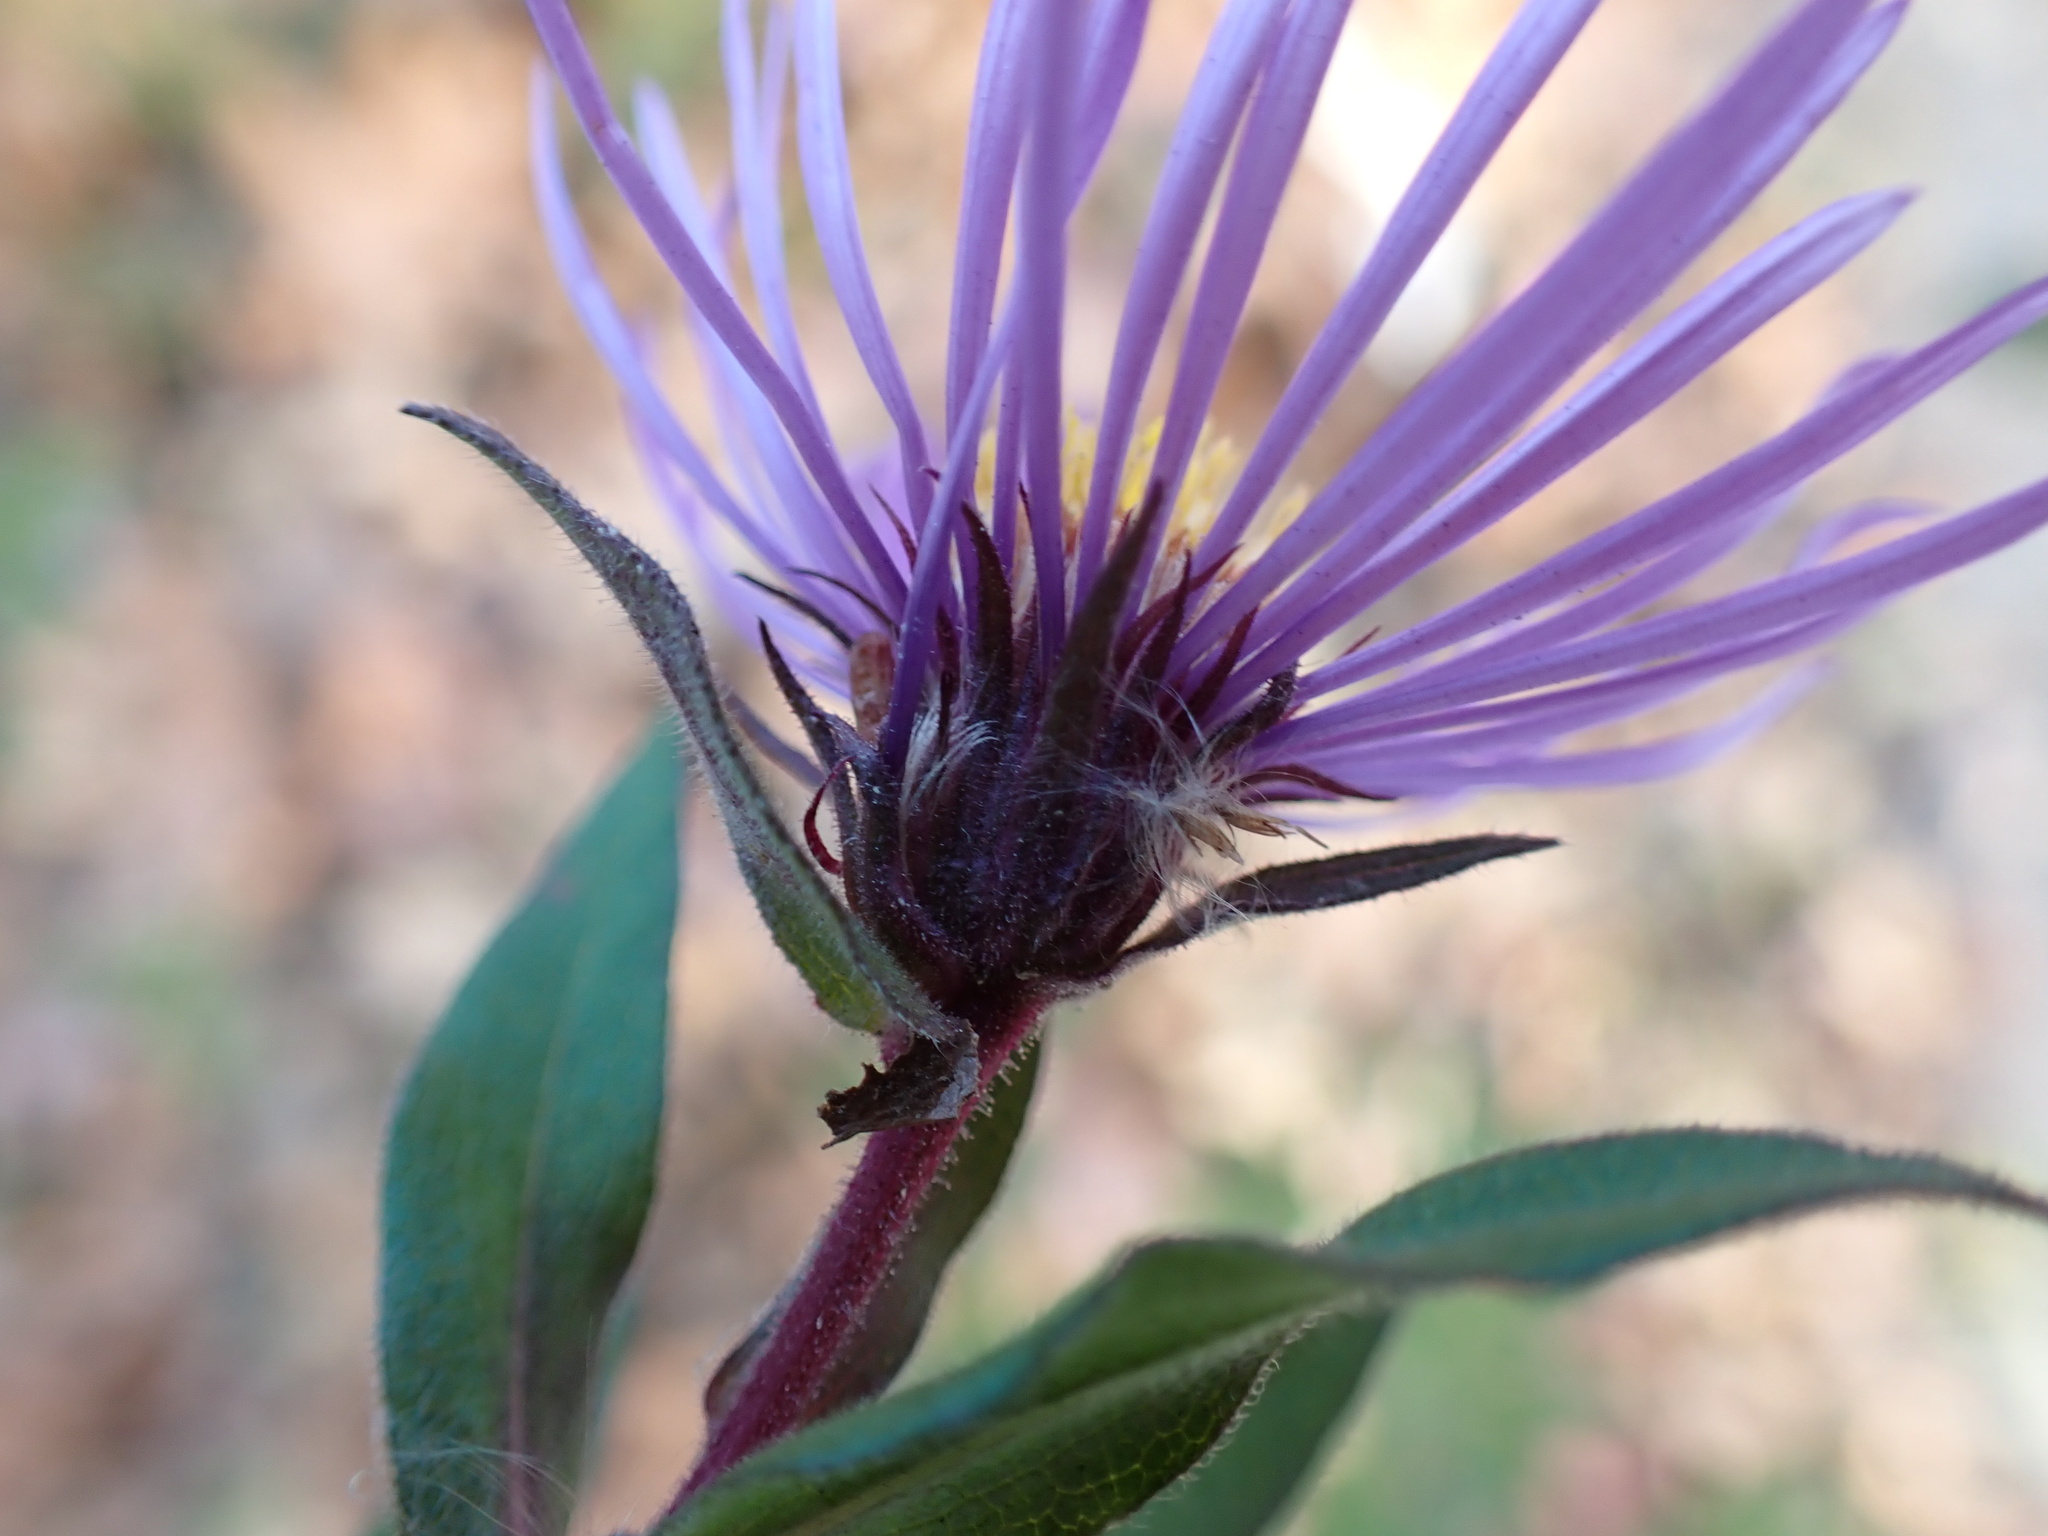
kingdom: Plantae
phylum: Tracheophyta
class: Magnoliopsida
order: Asterales
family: Asteraceae
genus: Symphyotrichum
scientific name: Symphyotrichum novae-angliae
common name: Michaelmas daisy
